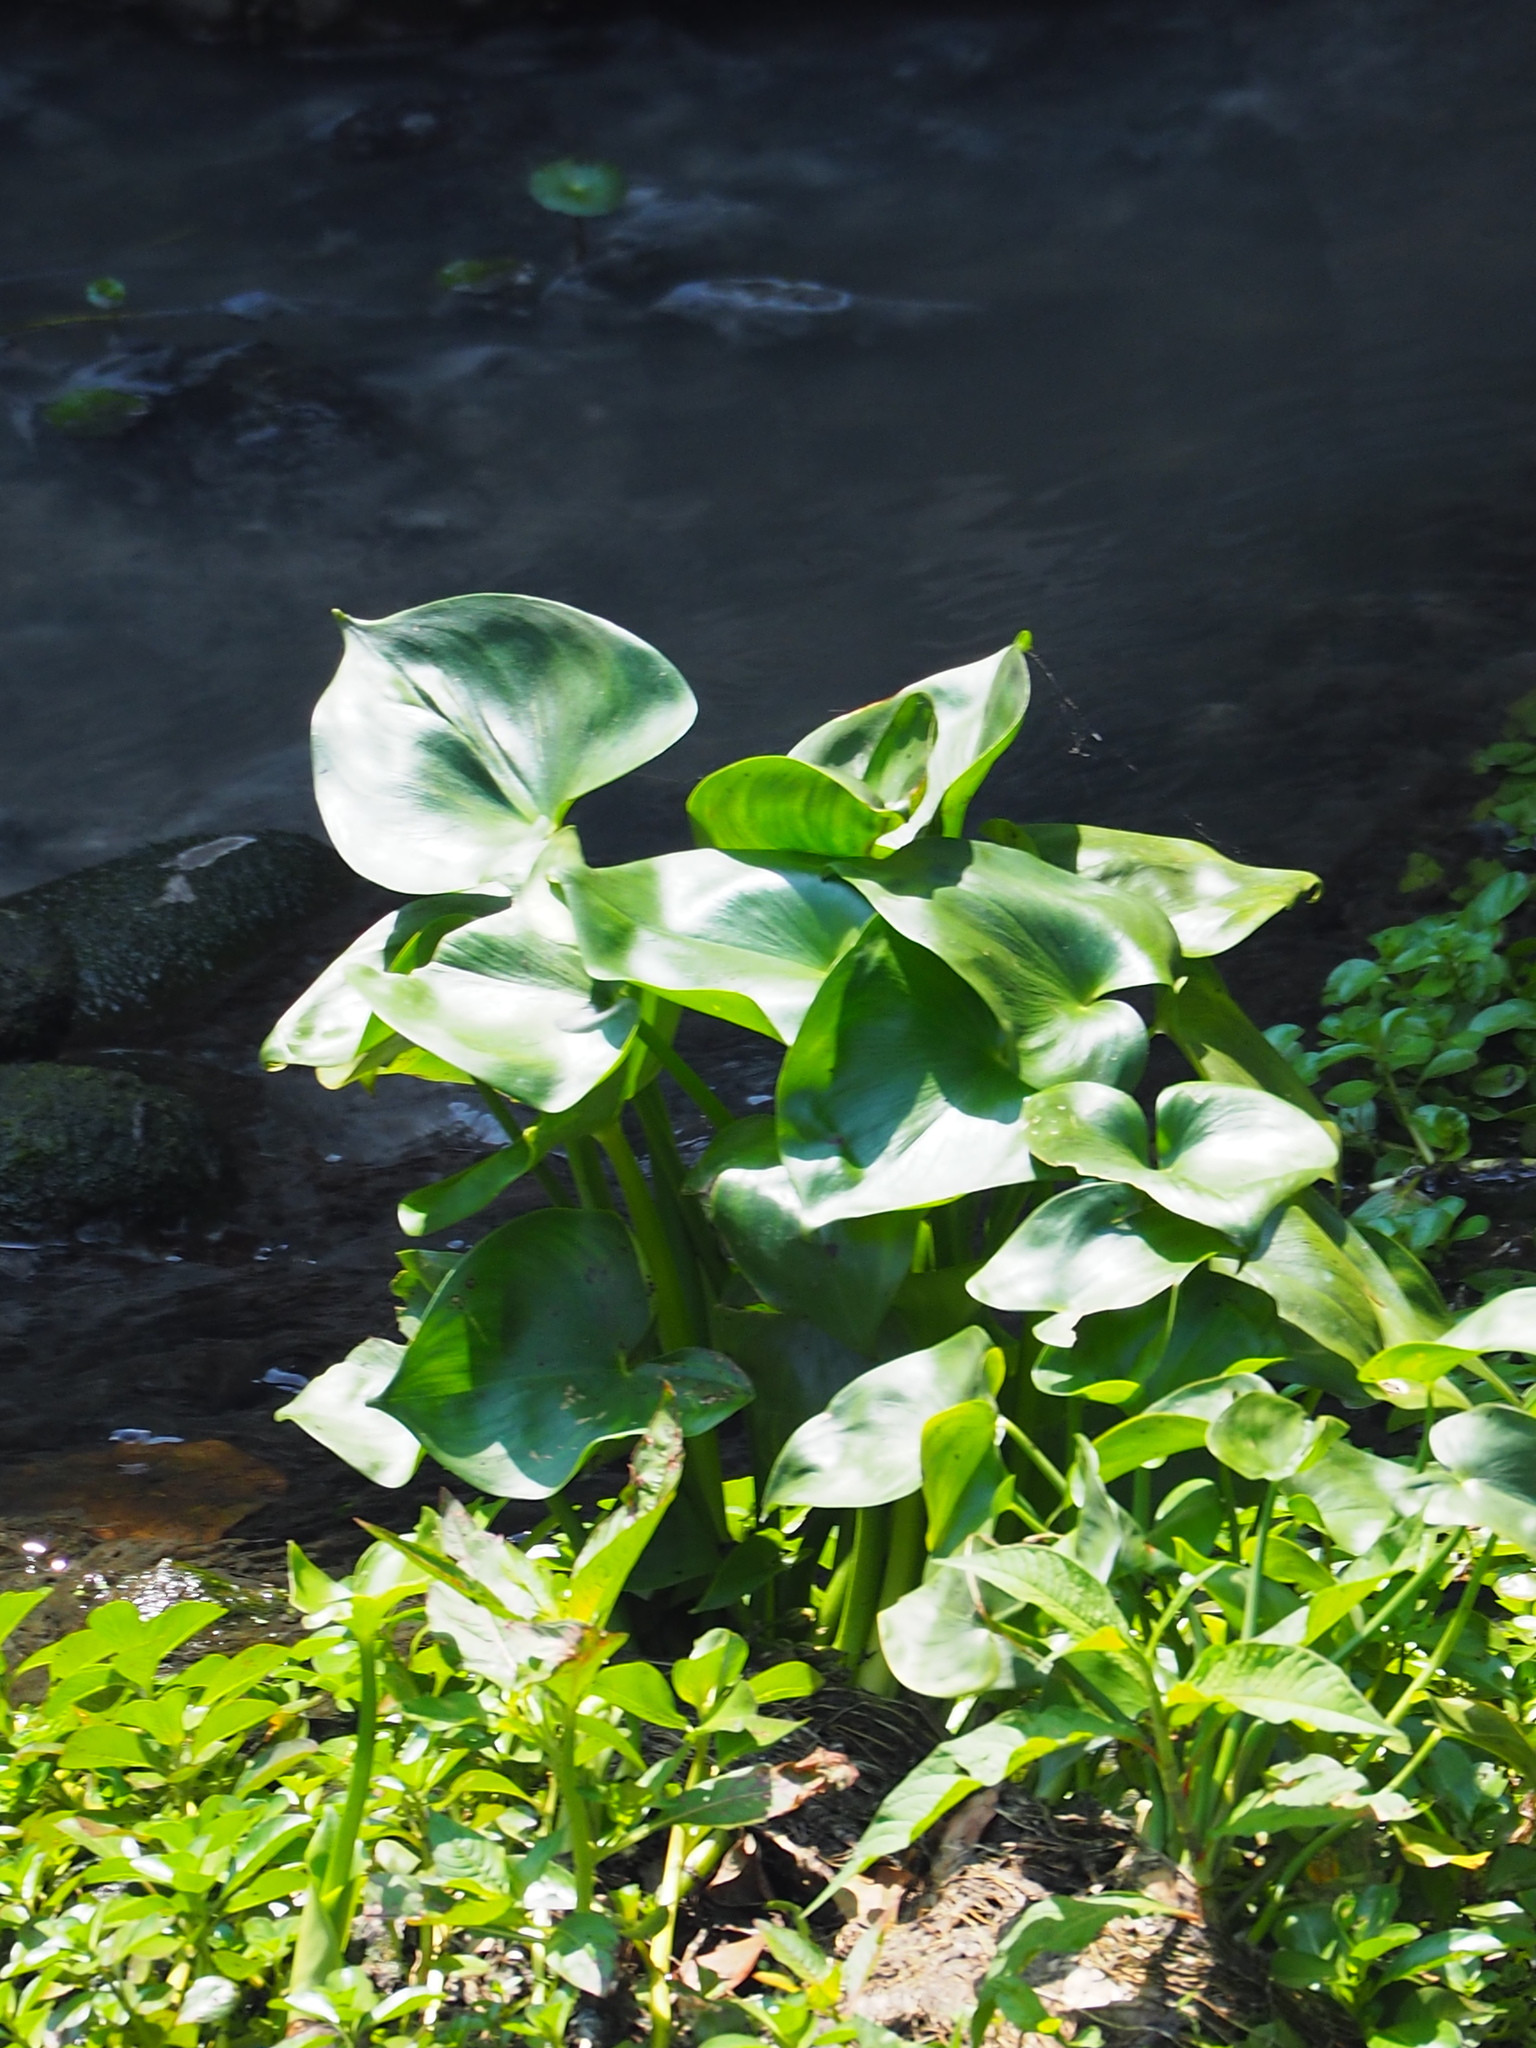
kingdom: Plantae
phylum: Tracheophyta
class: Liliopsida
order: Commelinales
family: Pontederiaceae
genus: Pontederia
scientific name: Pontederia vaginalis
